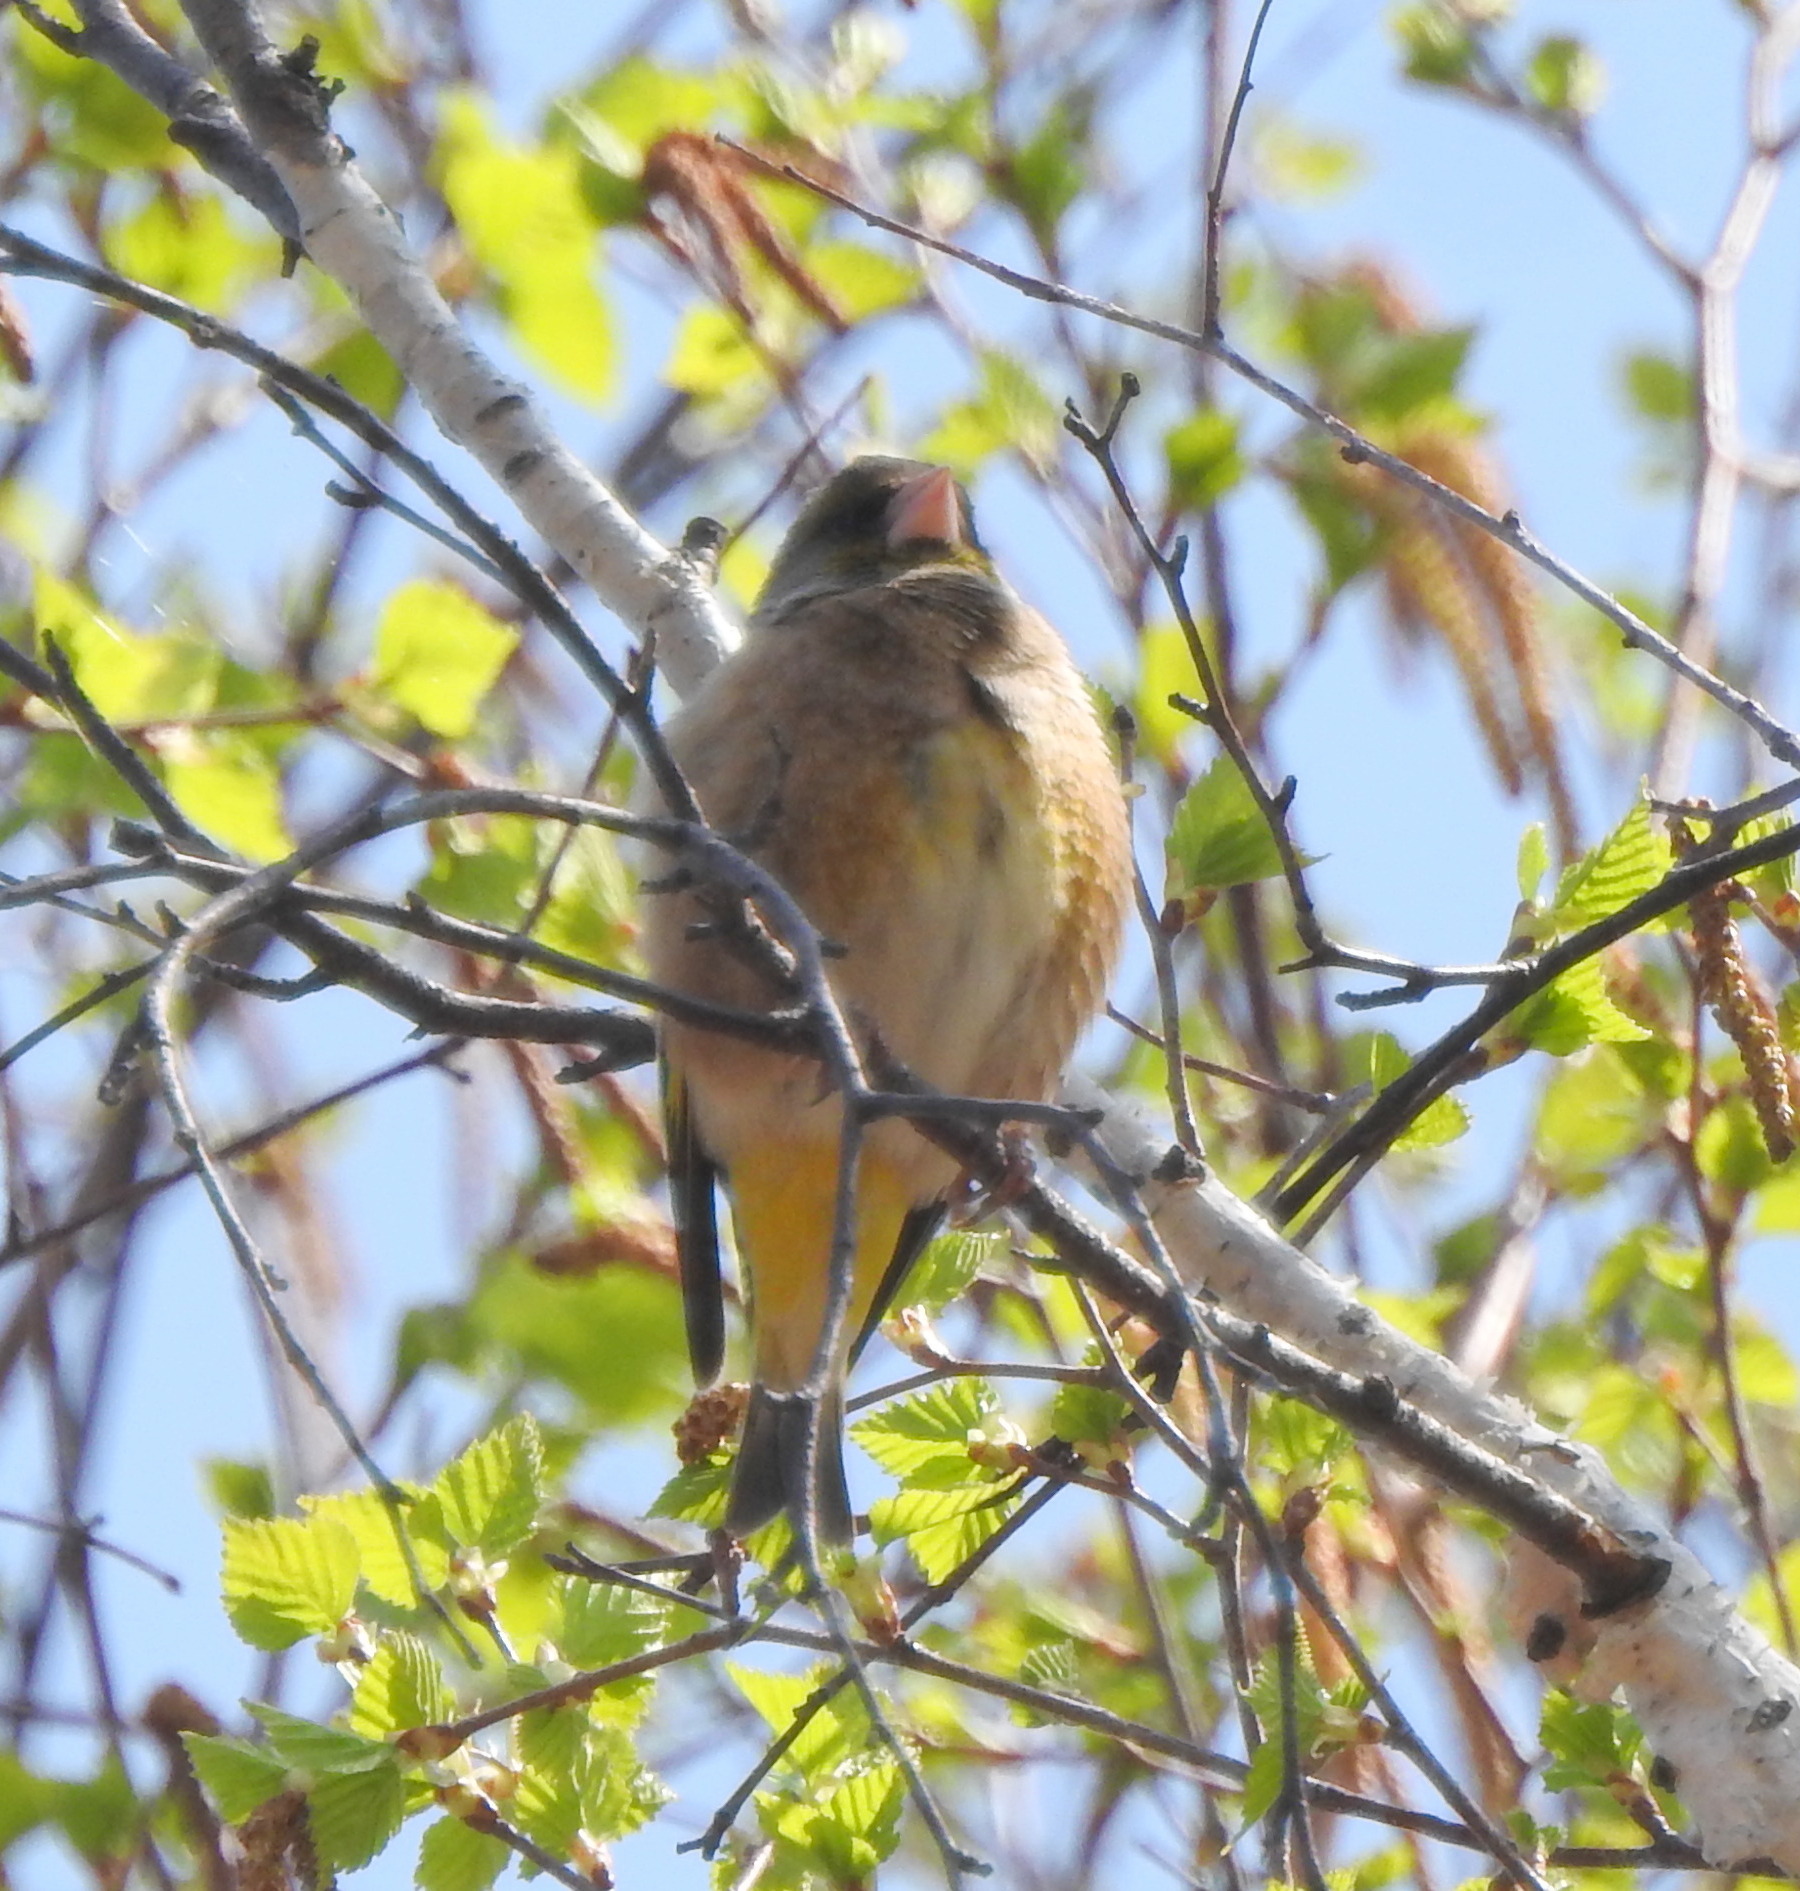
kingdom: Plantae
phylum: Tracheophyta
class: Liliopsida
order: Poales
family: Poaceae
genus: Chloris
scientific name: Chloris sinica
